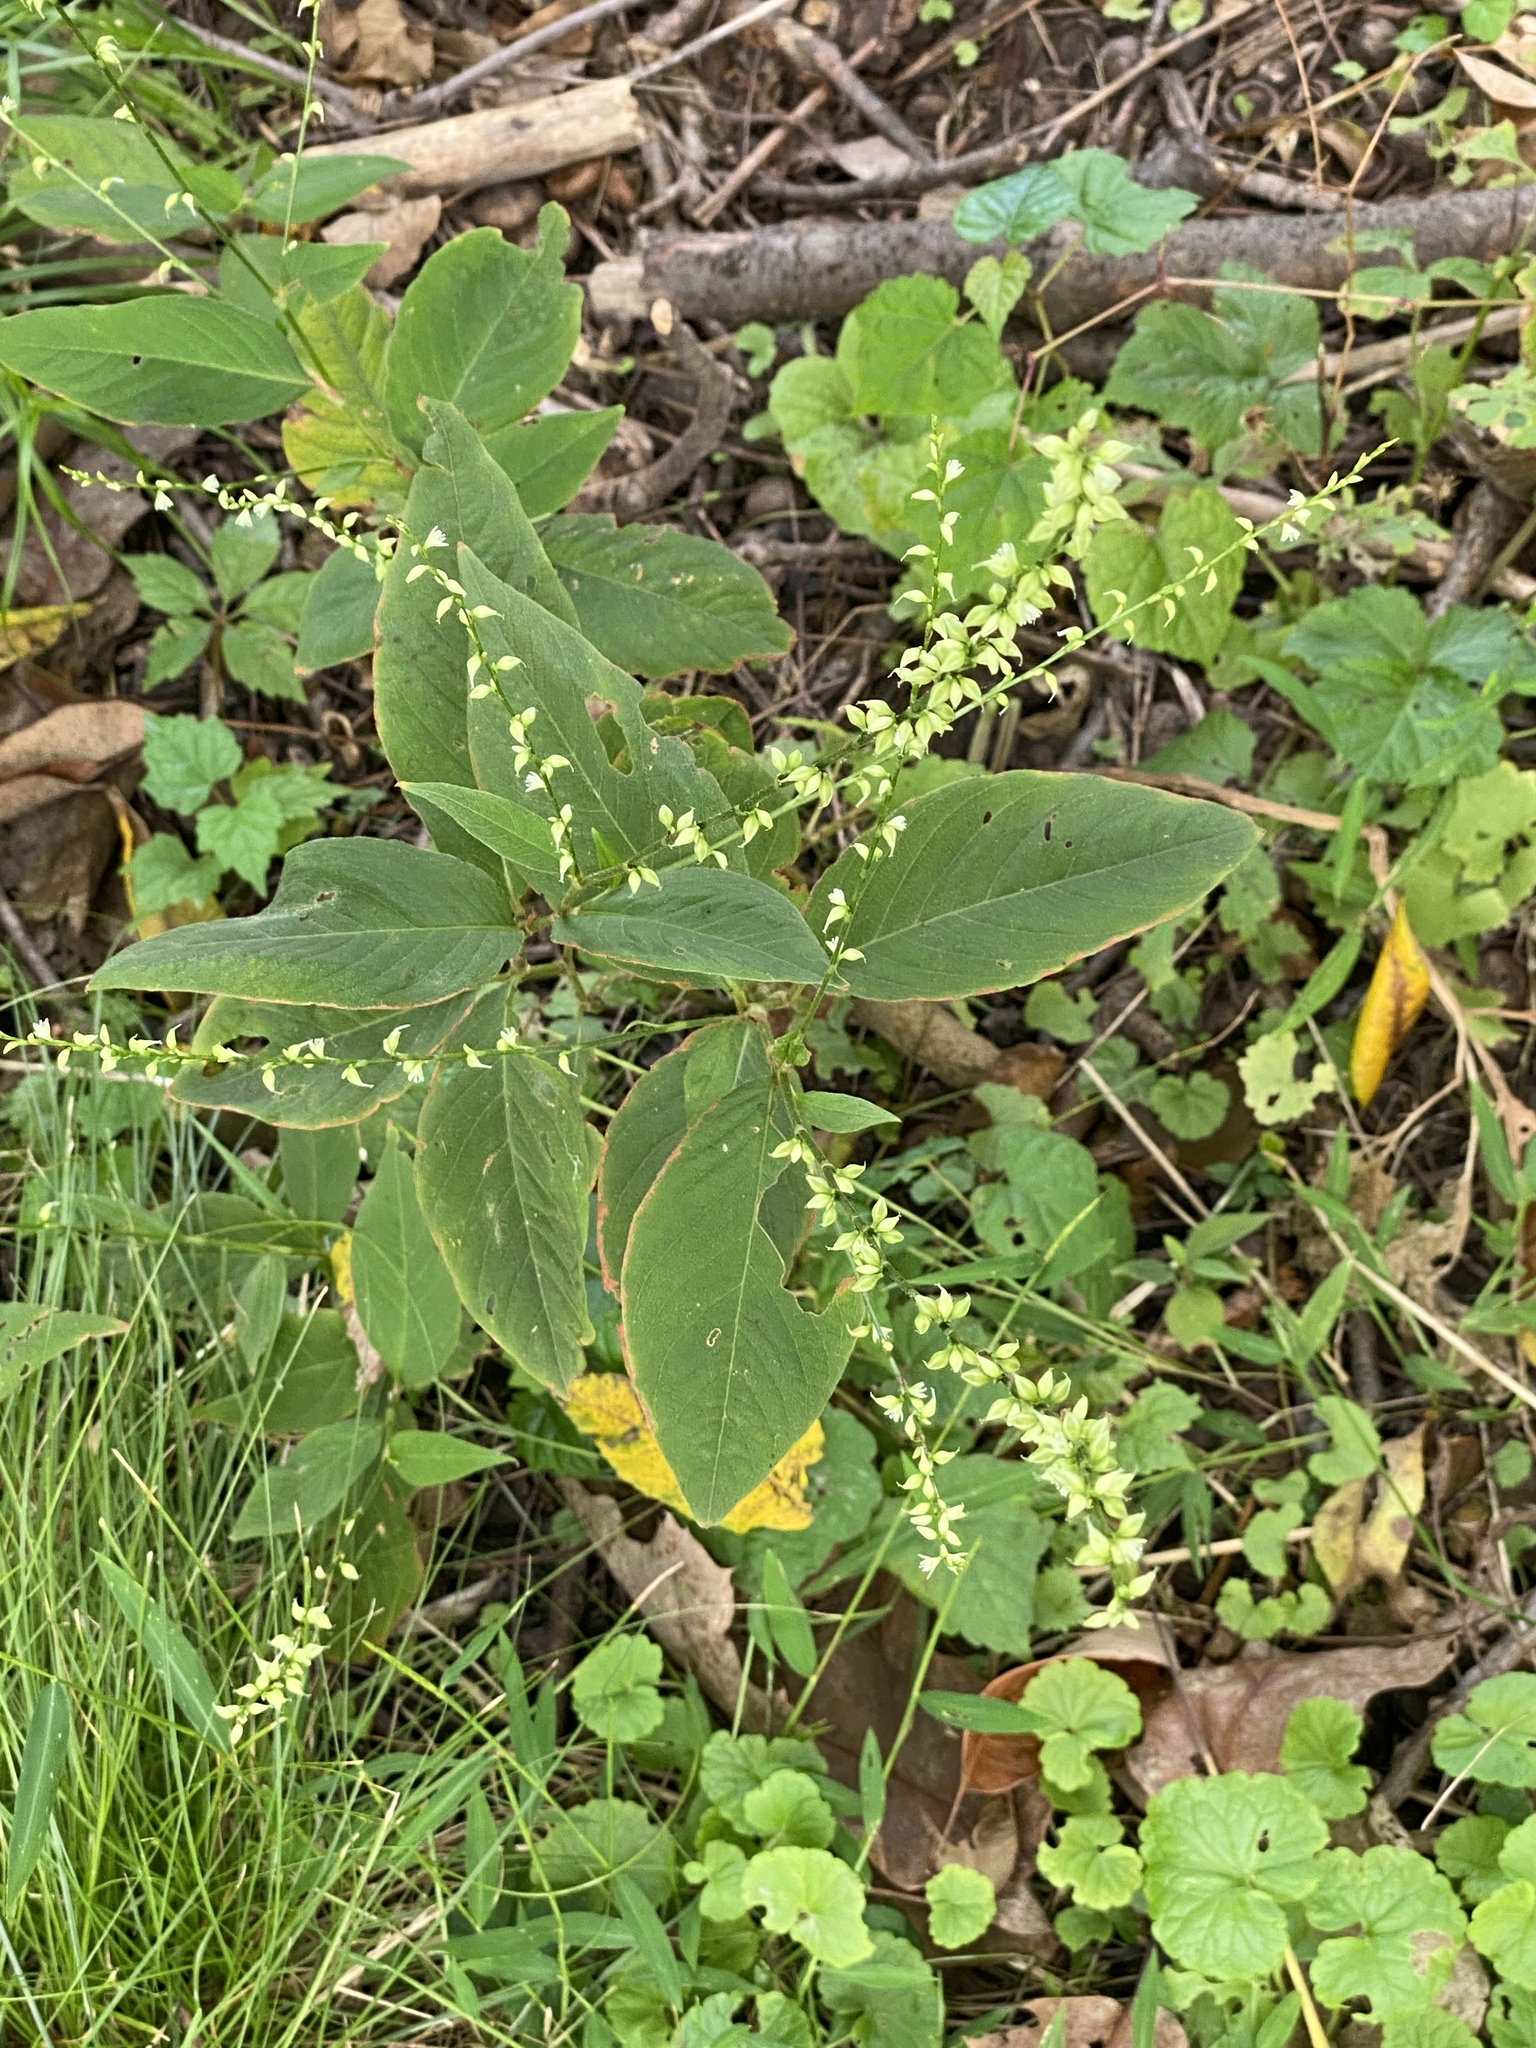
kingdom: Plantae
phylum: Tracheophyta
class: Magnoliopsida
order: Caryophyllales
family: Polygonaceae
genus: Persicaria
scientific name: Persicaria virginiana
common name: Jumpseed
